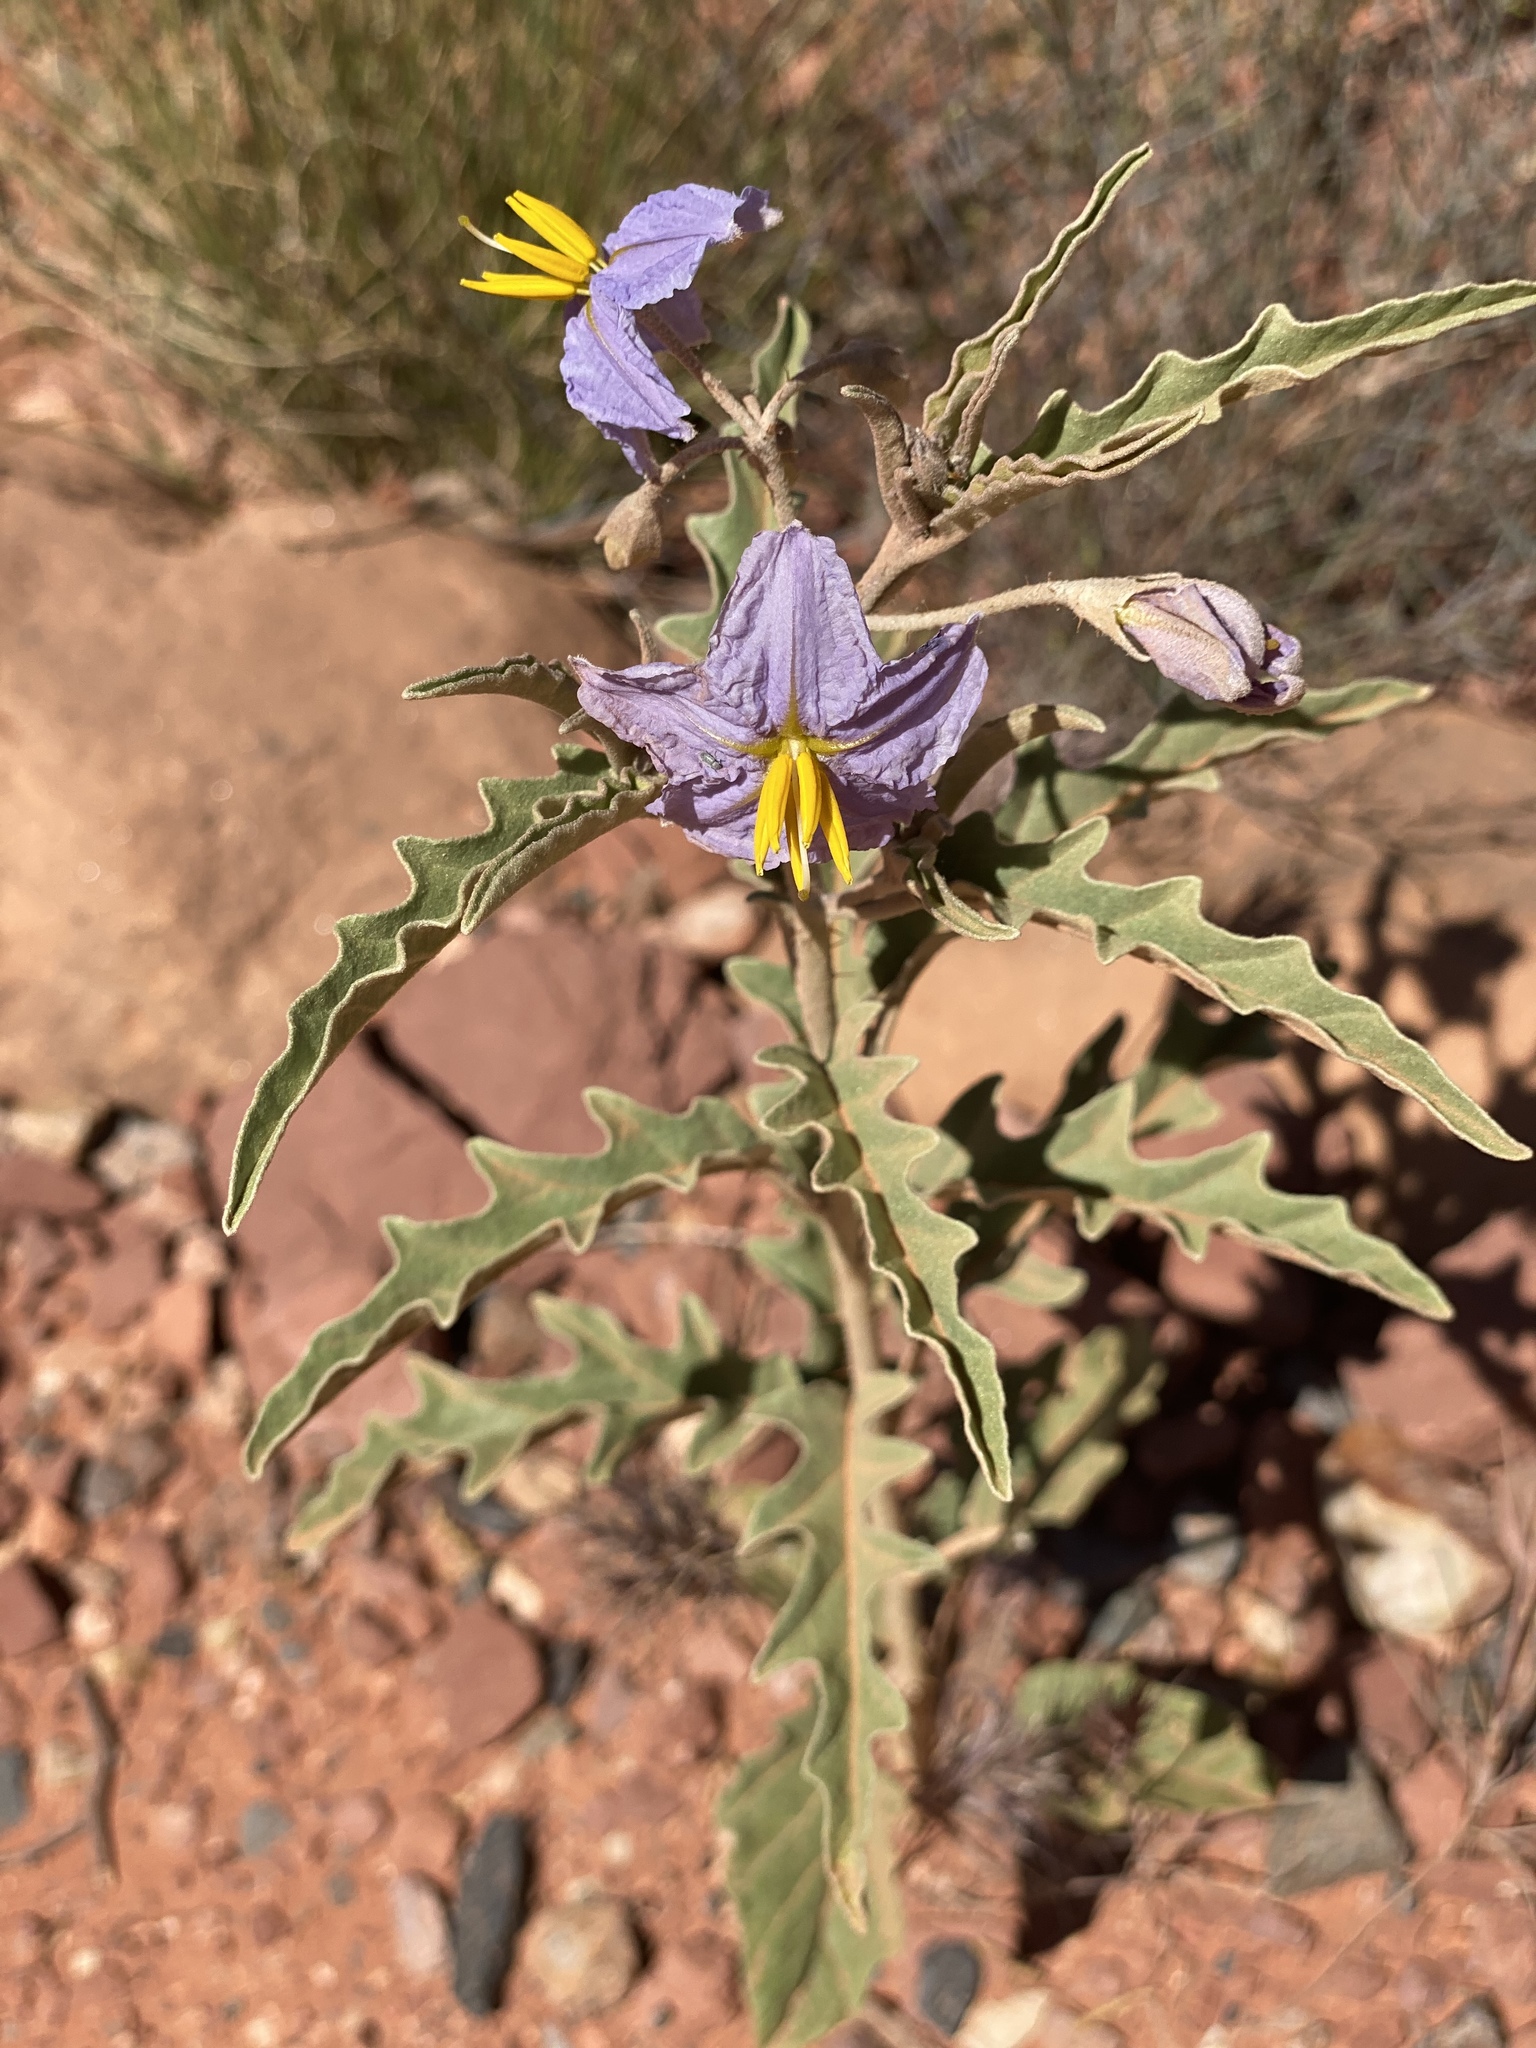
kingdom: Plantae
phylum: Tracheophyta
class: Magnoliopsida
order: Solanales
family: Solanaceae
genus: Solanum
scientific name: Solanum elaeagnifolium
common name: Silverleaf nightshade
